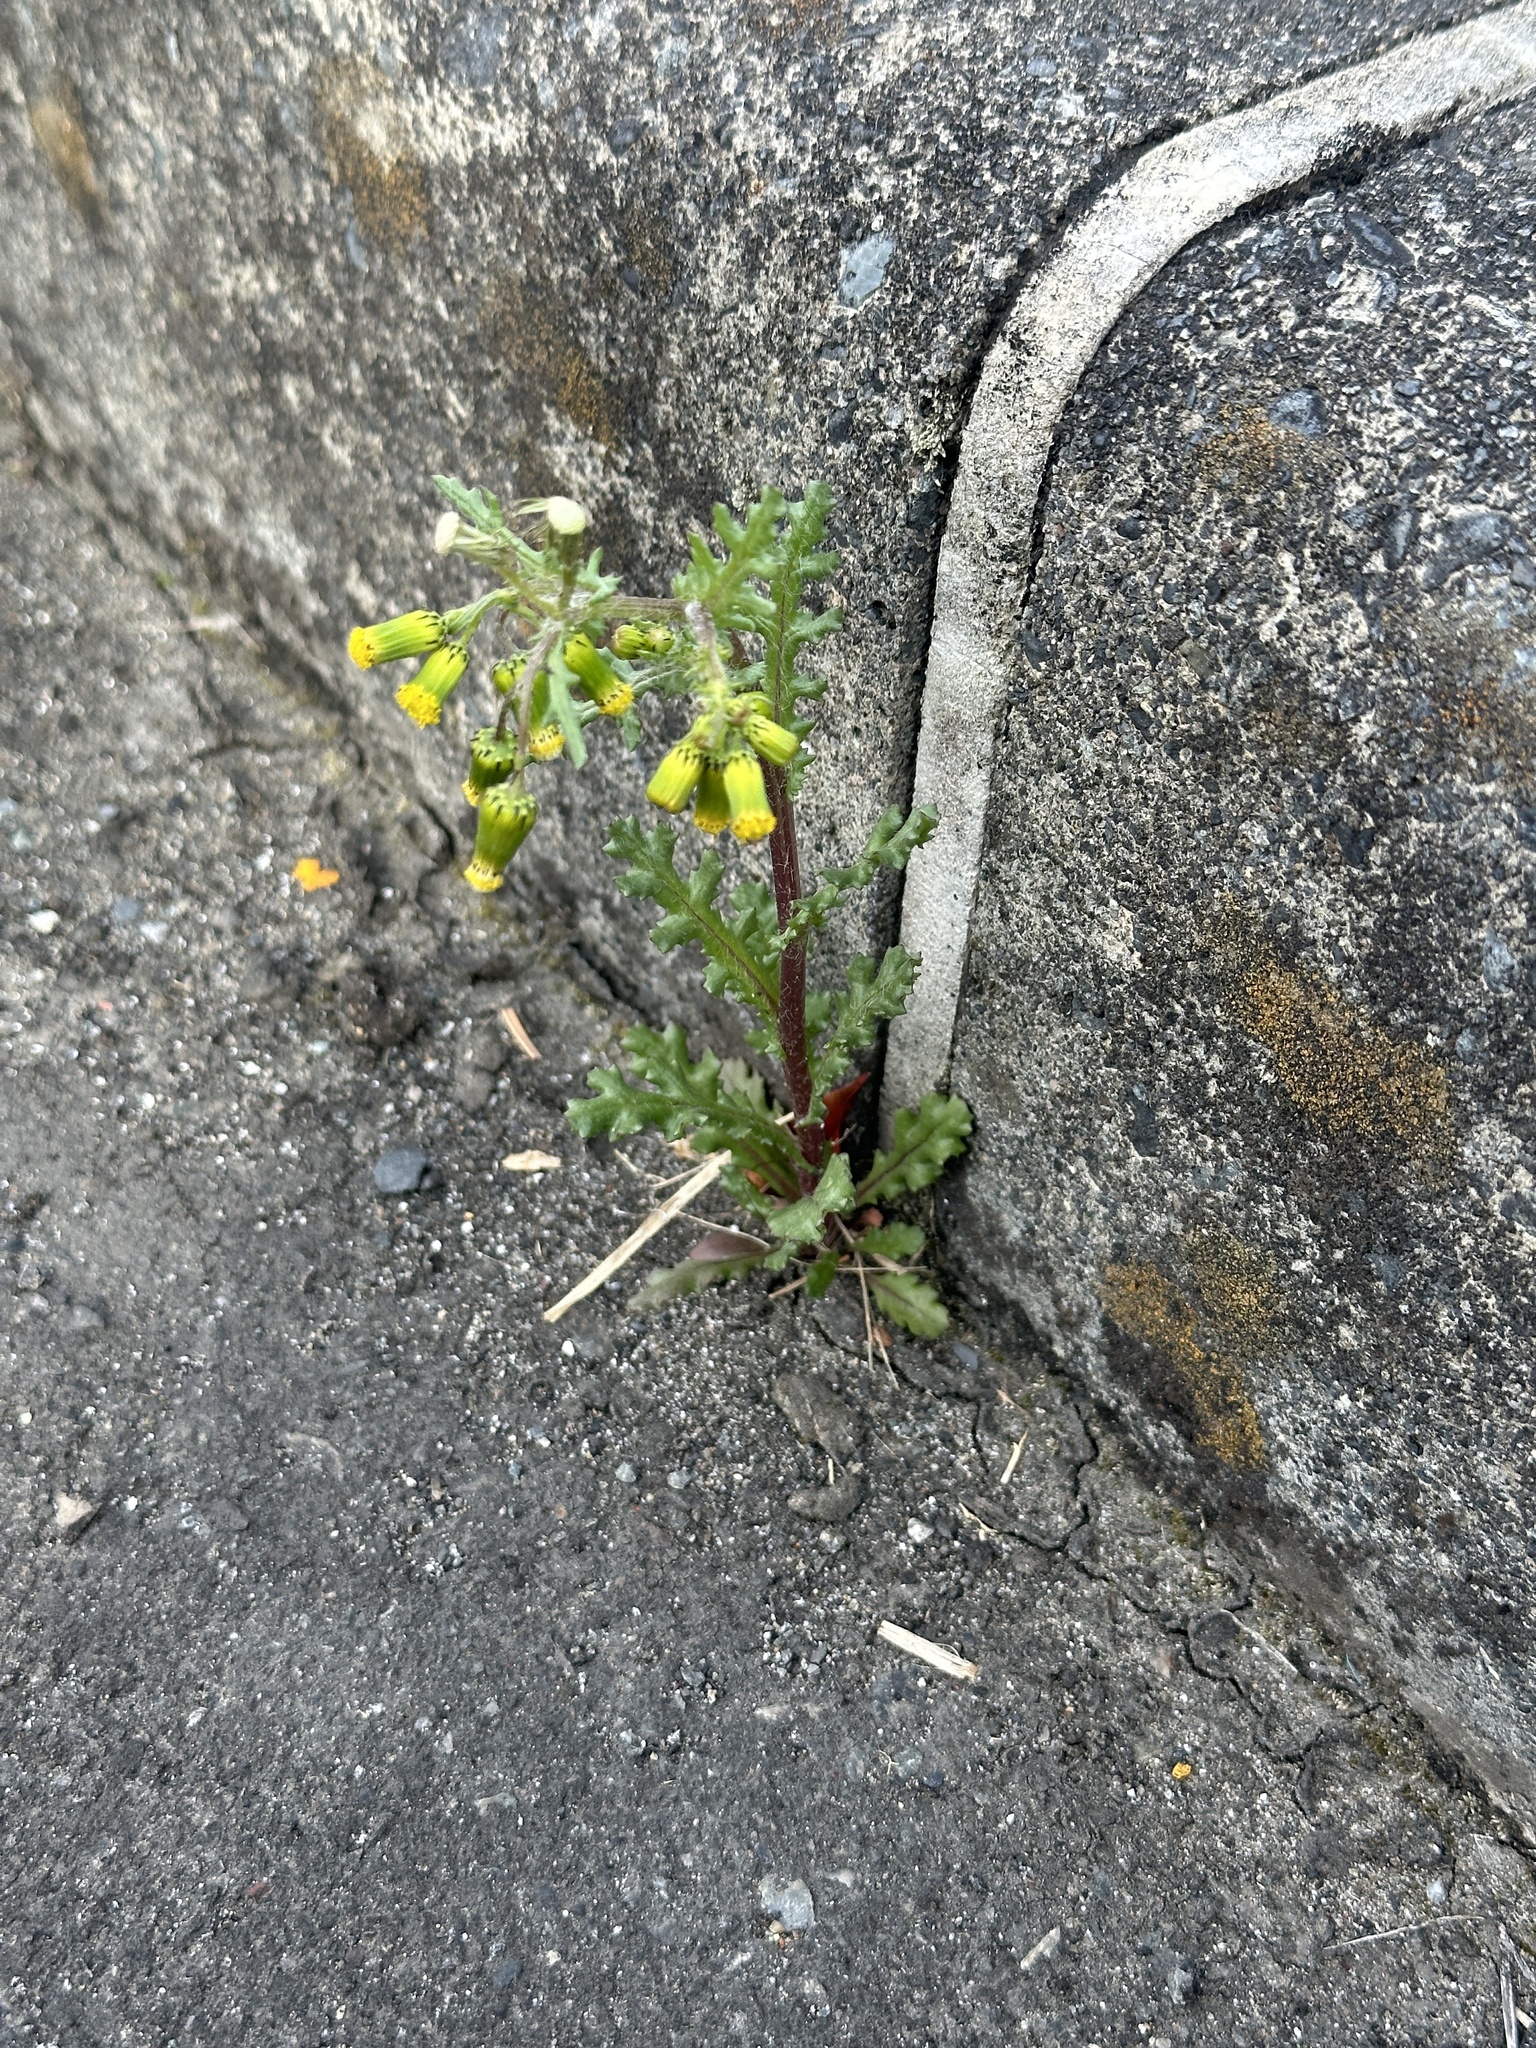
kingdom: Plantae
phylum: Tracheophyta
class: Magnoliopsida
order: Asterales
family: Asteraceae
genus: Senecio
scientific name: Senecio vulgaris
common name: Old-man-in-the-spring
